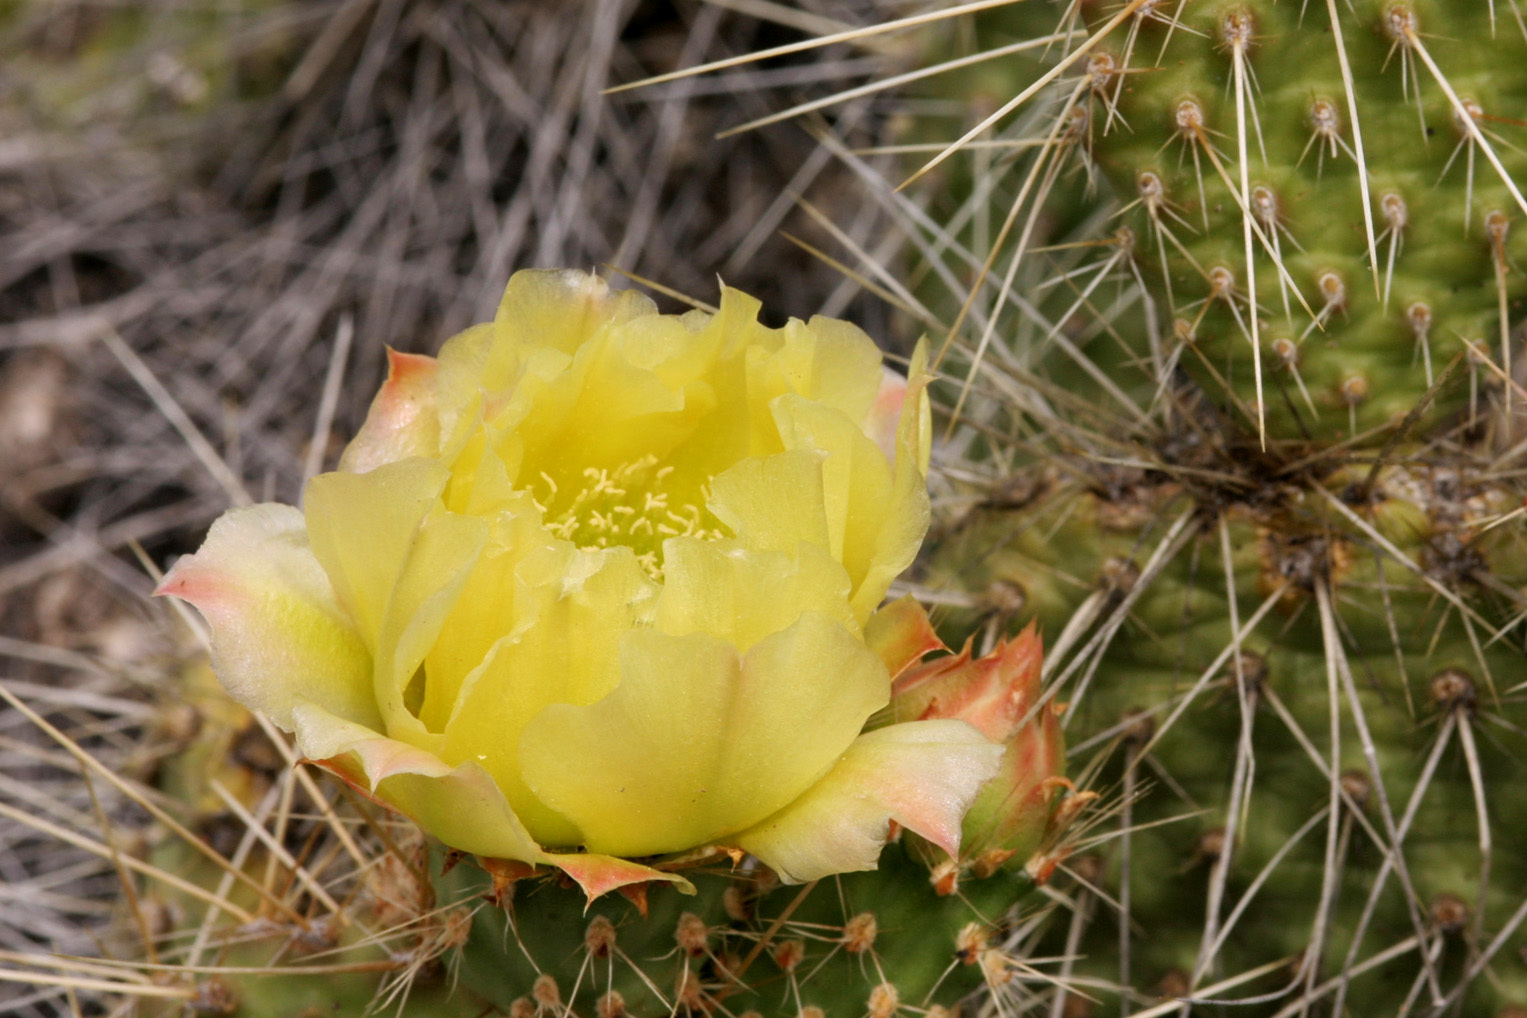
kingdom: Plantae
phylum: Tracheophyta
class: Magnoliopsida
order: Caryophyllales
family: Cactaceae
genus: Opuntia
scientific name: Opuntia polyacantha
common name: Plains prickly-pear
